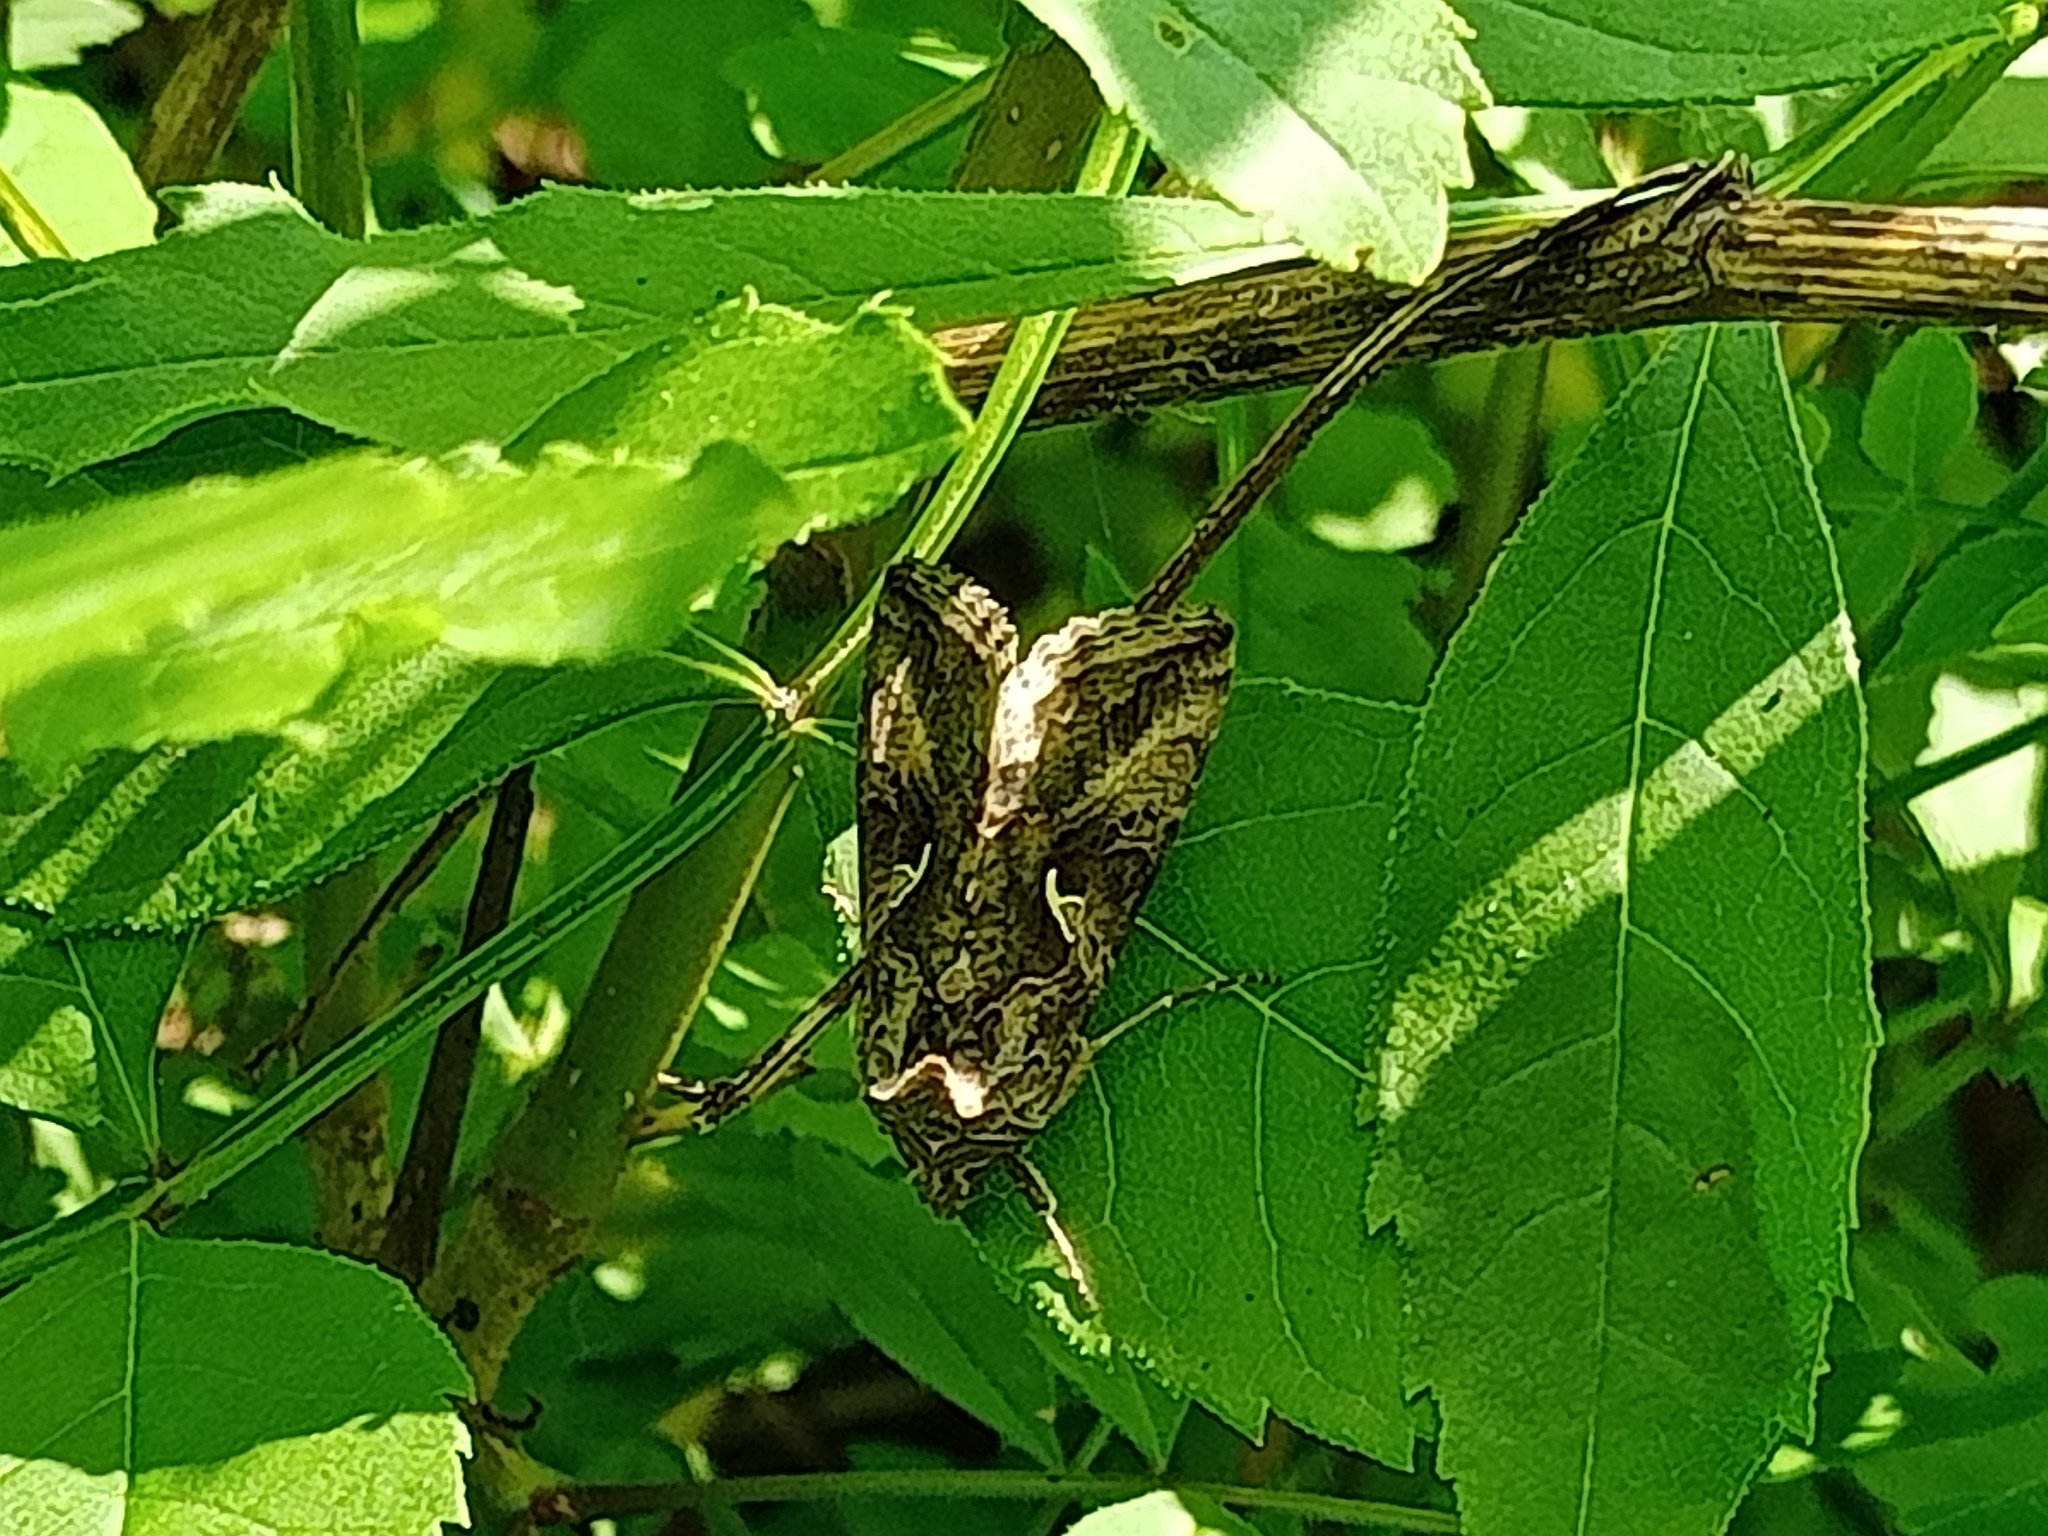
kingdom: Animalia
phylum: Arthropoda
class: Insecta
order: Lepidoptera
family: Noctuidae
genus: Autographa
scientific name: Autographa gamma
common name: Silver y
